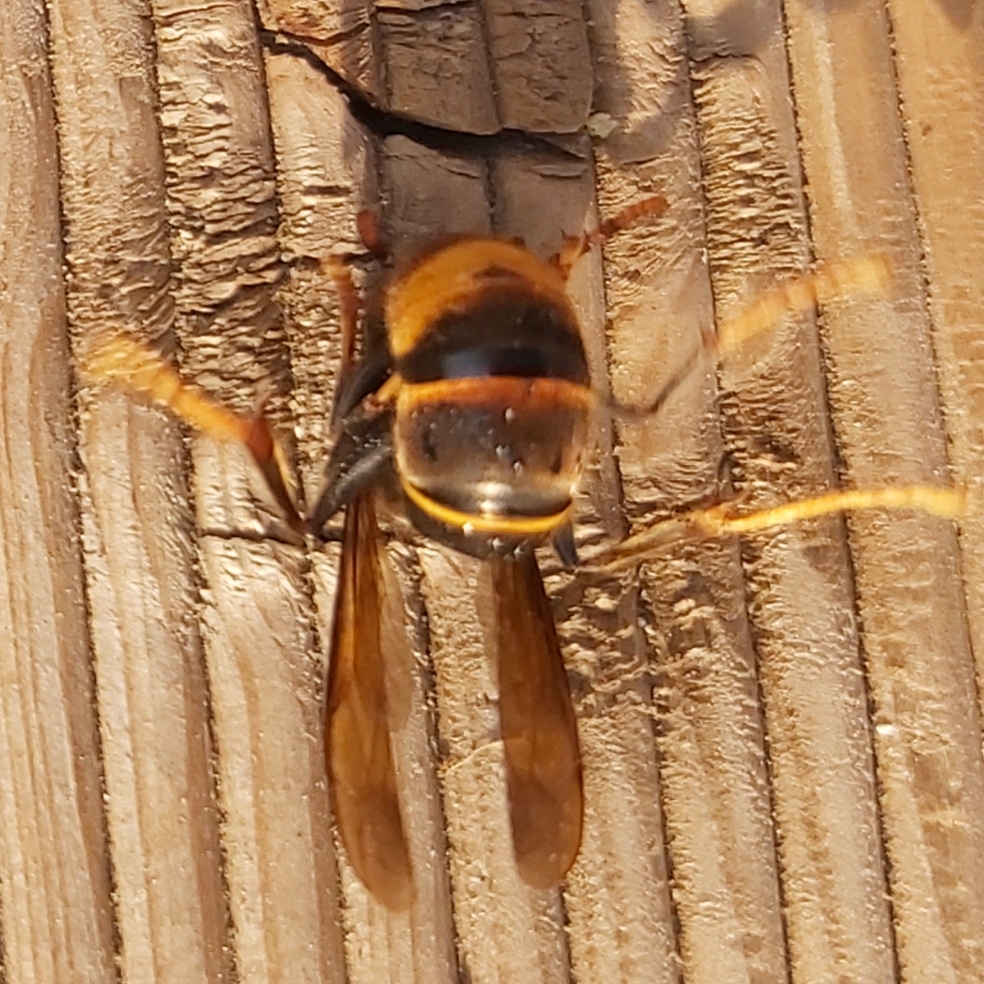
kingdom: Animalia
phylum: Arthropoda
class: Insecta
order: Hymenoptera
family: Vespidae
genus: Vespa
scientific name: Vespa velutina
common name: Asian hornet
